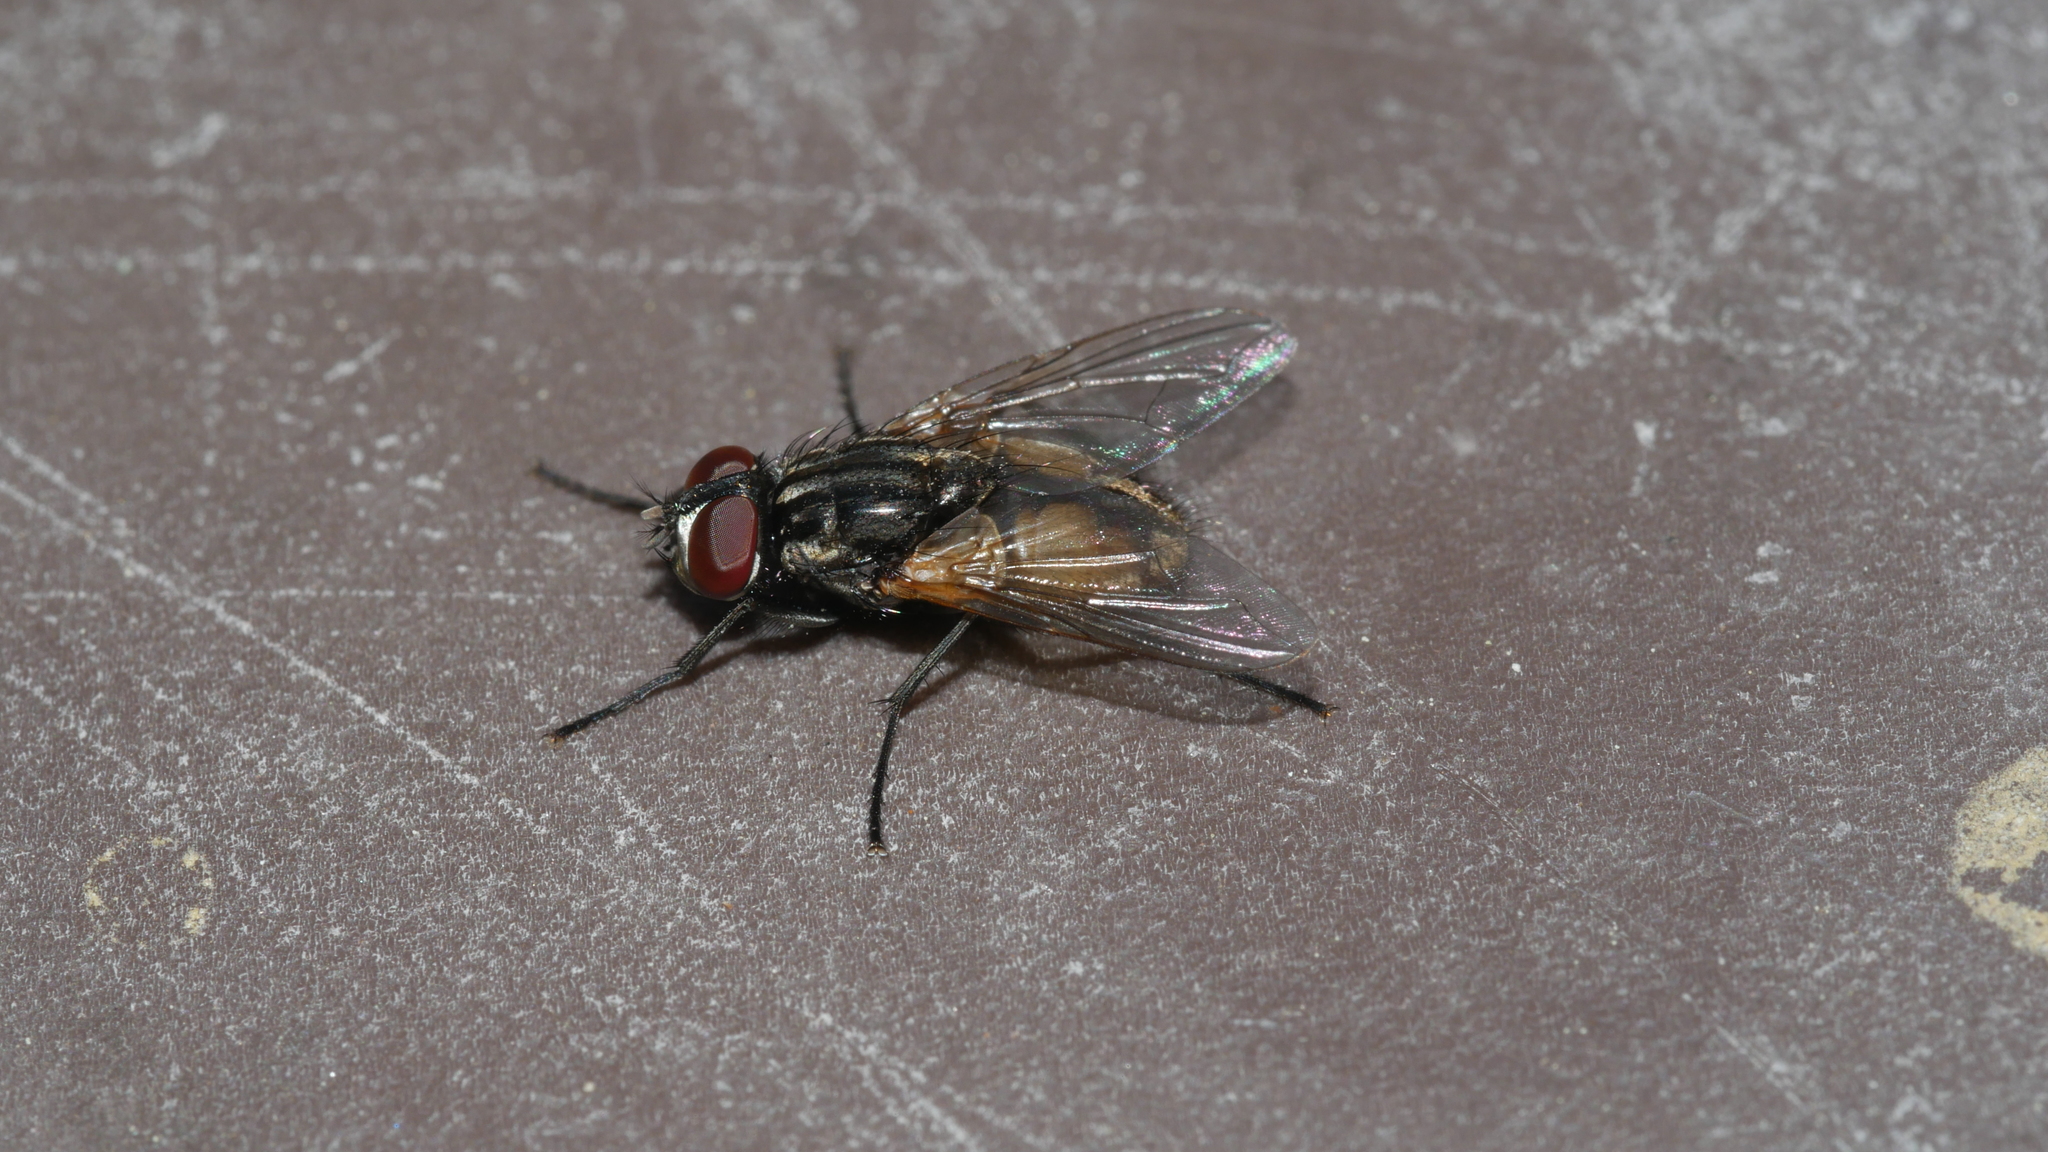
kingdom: Animalia
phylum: Arthropoda
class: Insecta
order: Diptera
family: Muscidae
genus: Musca
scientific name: Musca domestica
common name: House fly
